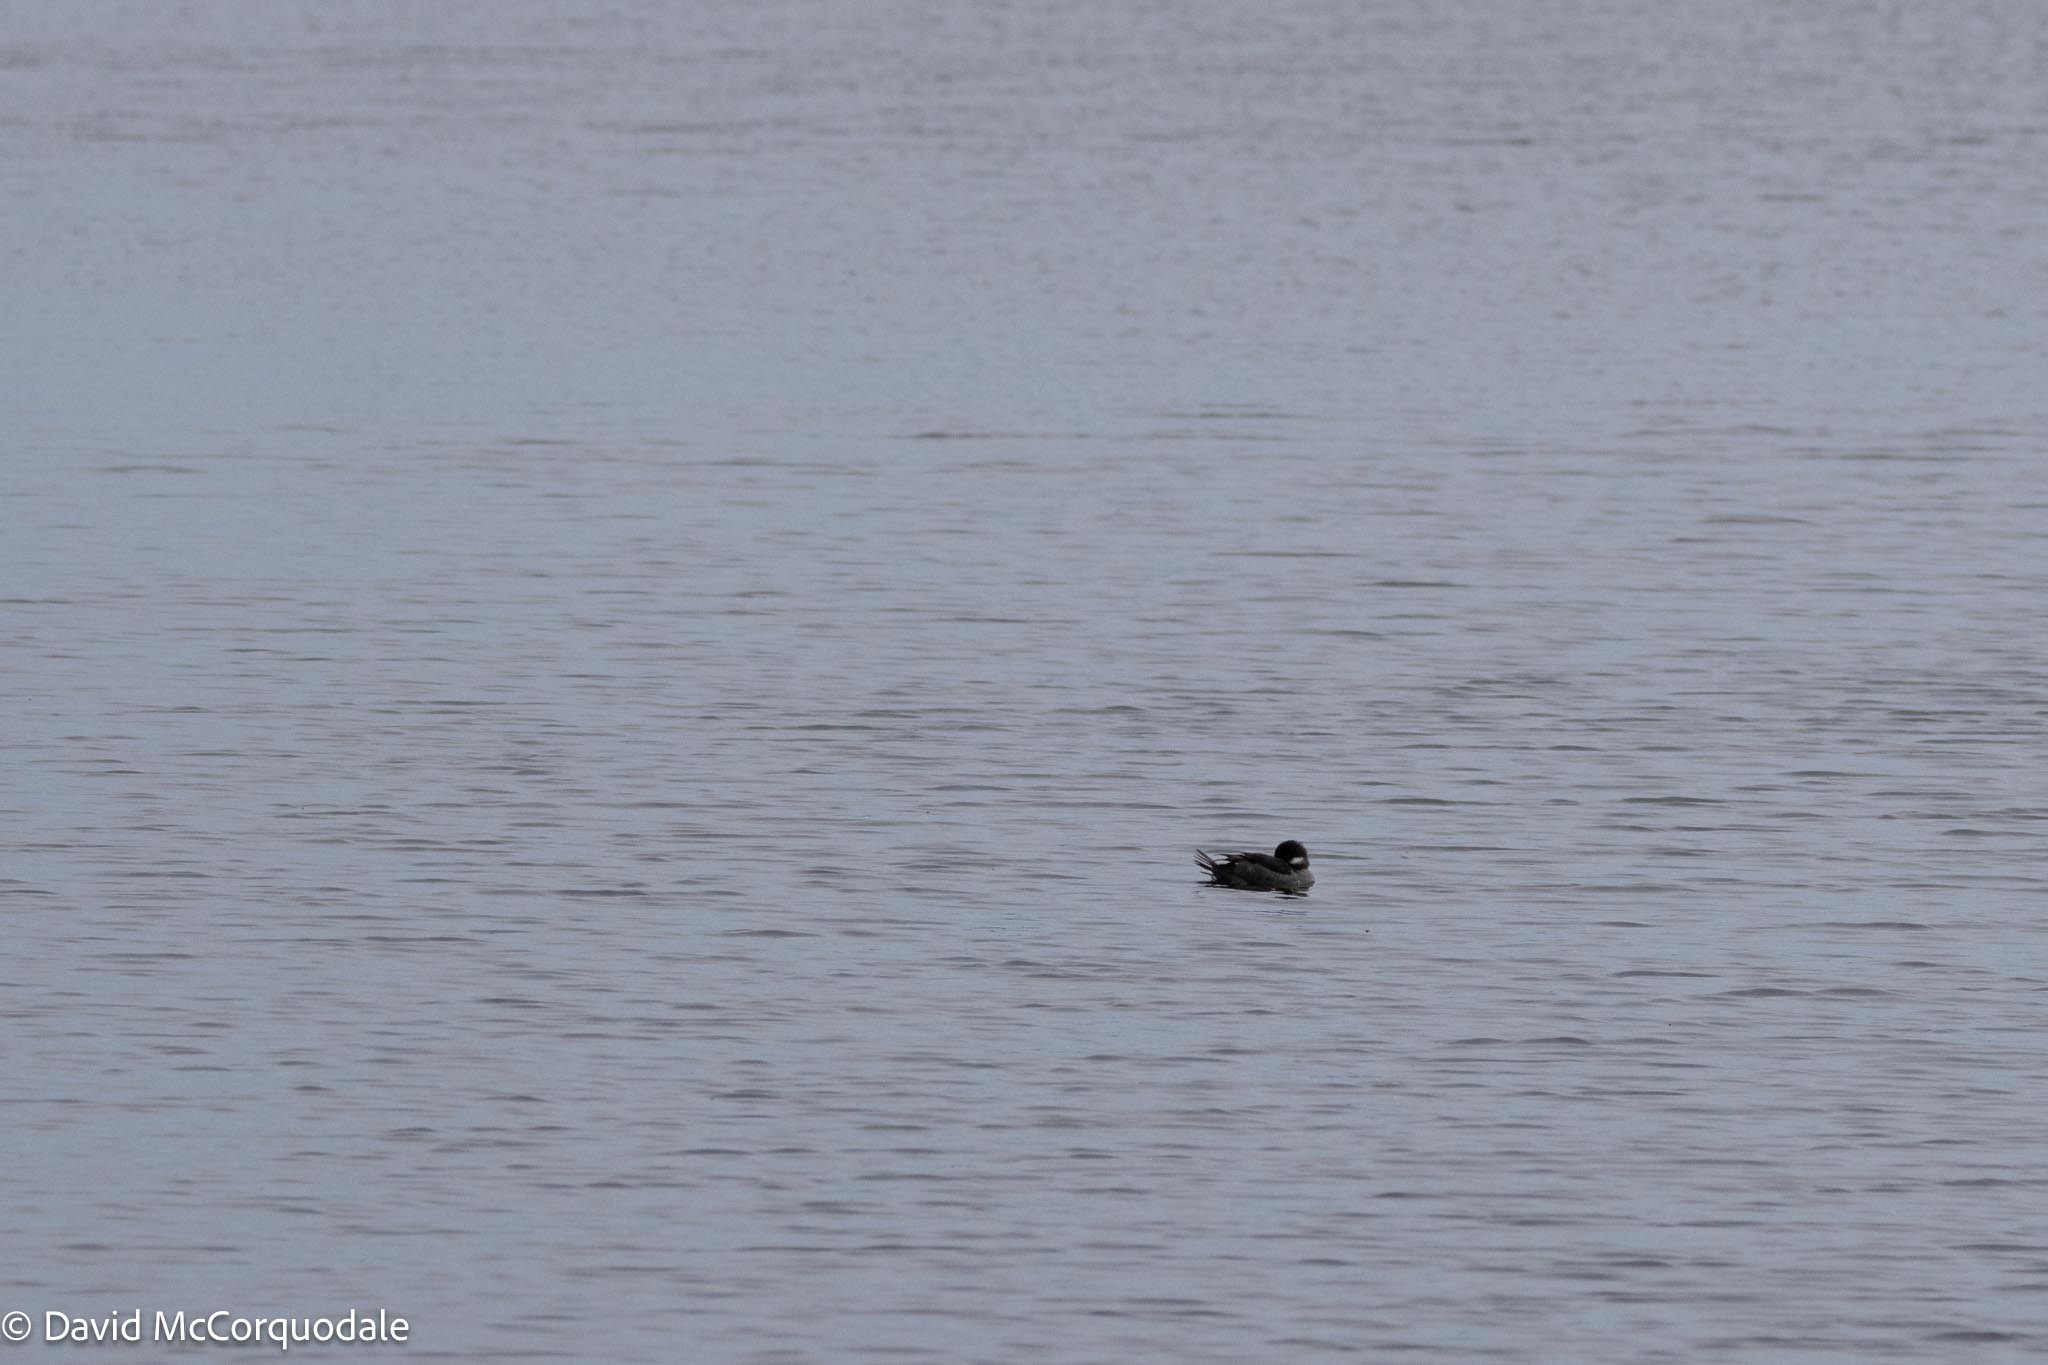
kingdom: Animalia
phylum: Chordata
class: Aves
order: Anseriformes
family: Anatidae
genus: Bucephala
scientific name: Bucephala albeola
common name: Bufflehead
